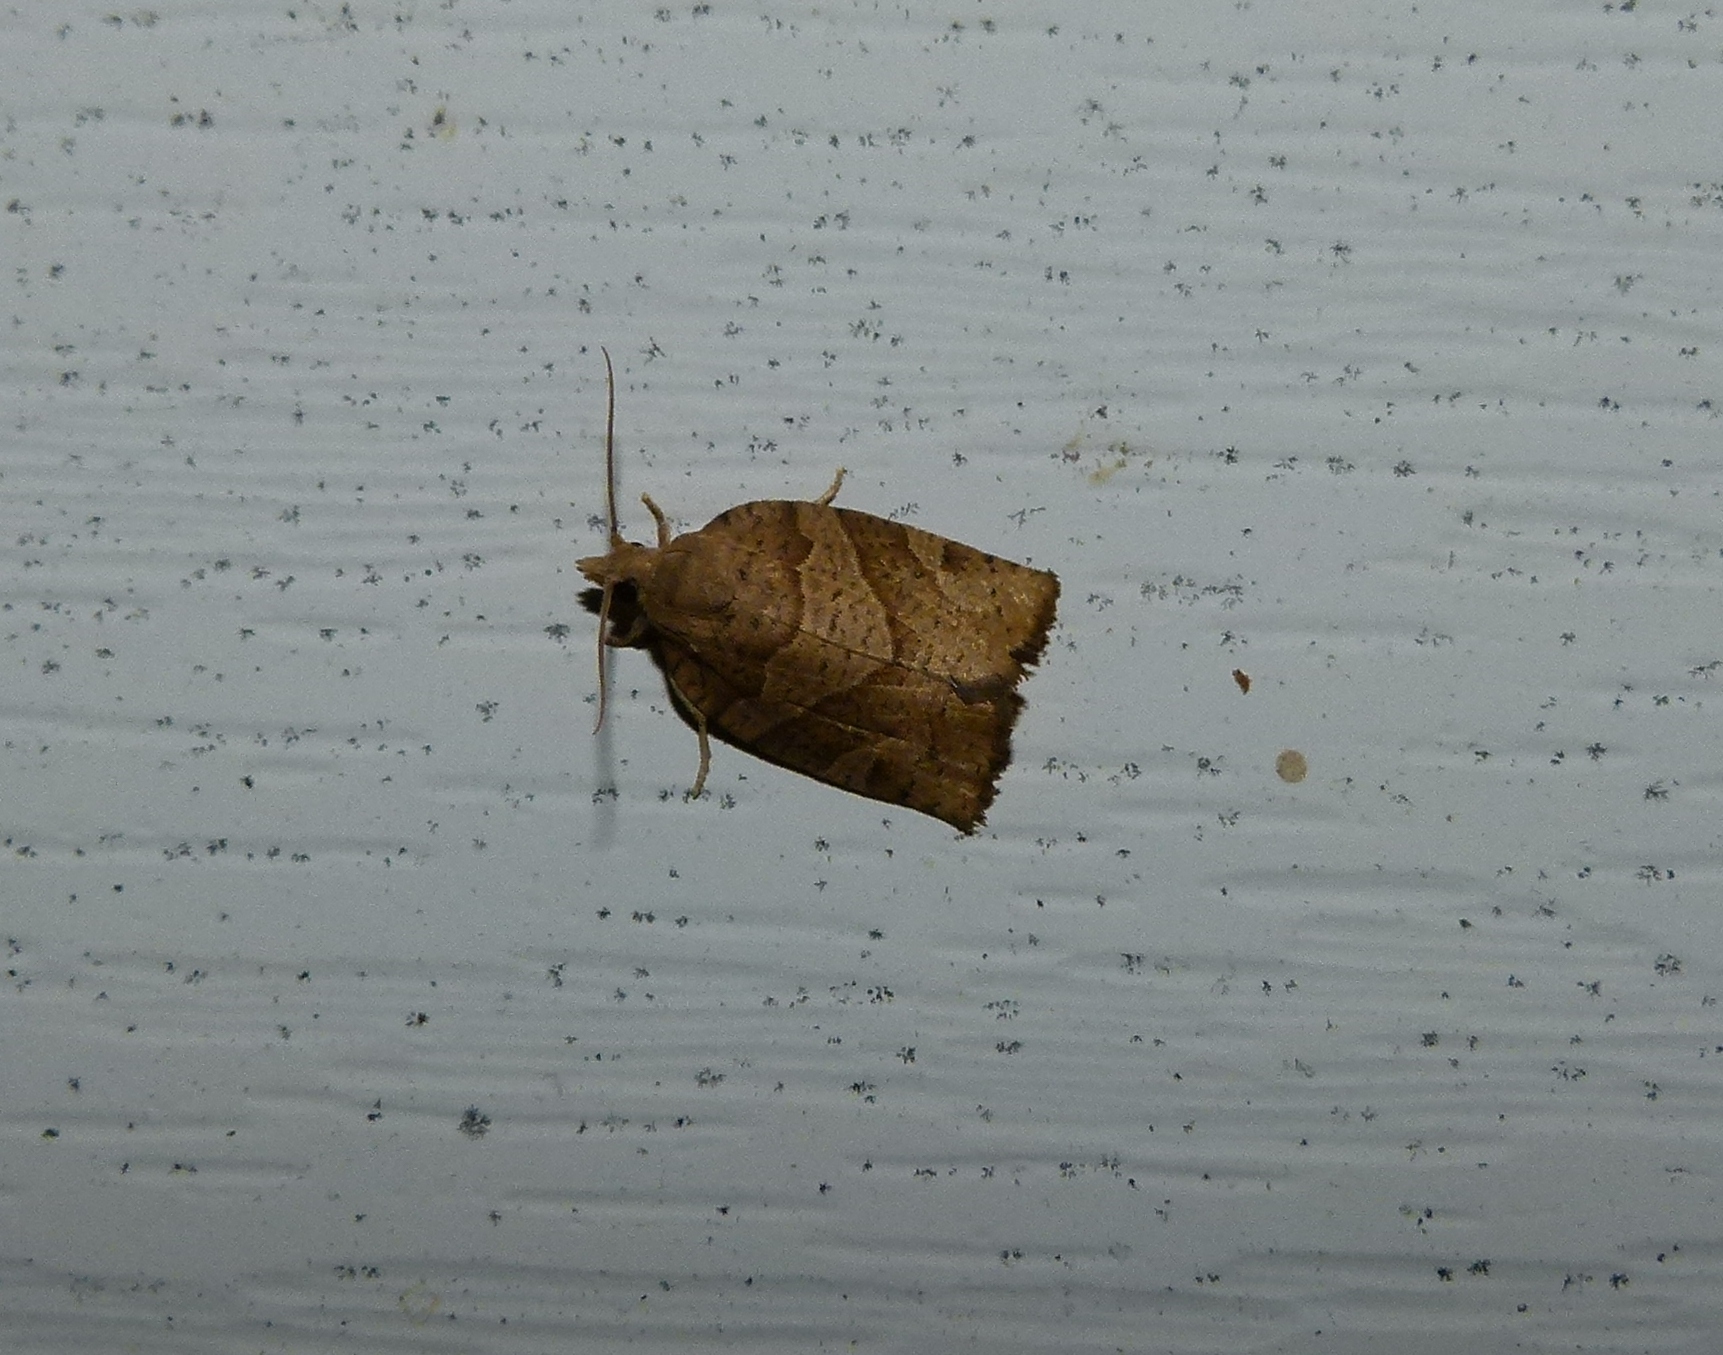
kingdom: Animalia
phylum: Arthropoda
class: Insecta
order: Lepidoptera
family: Tortricidae
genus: Pandemis
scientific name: Pandemis lamprosana
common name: Woodgrain leafroller moth
